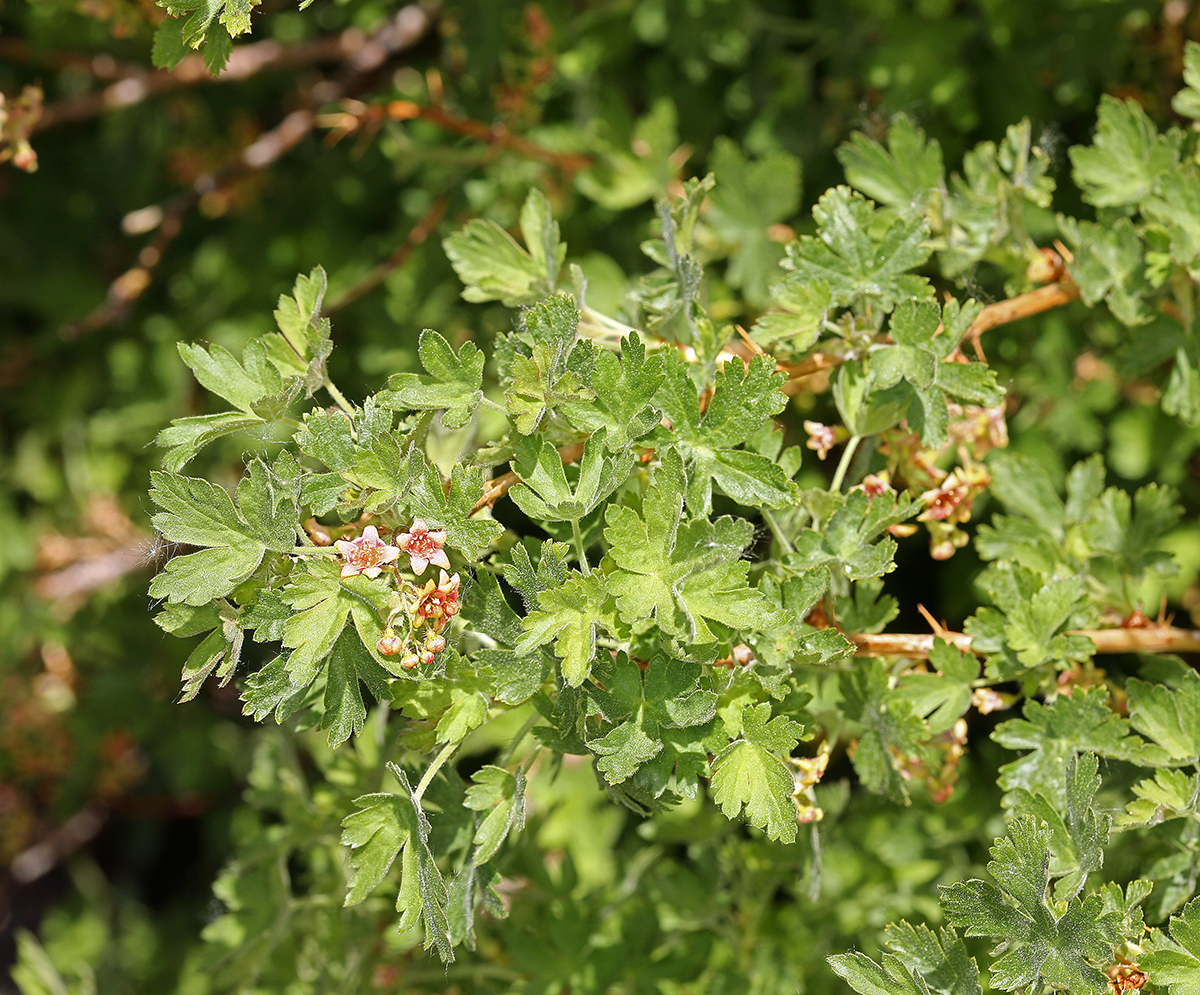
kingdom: Plantae
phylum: Tracheophyta
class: Magnoliopsida
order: Saxifragales
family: Grossulariaceae
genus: Ribes
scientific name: Ribes montigenum
